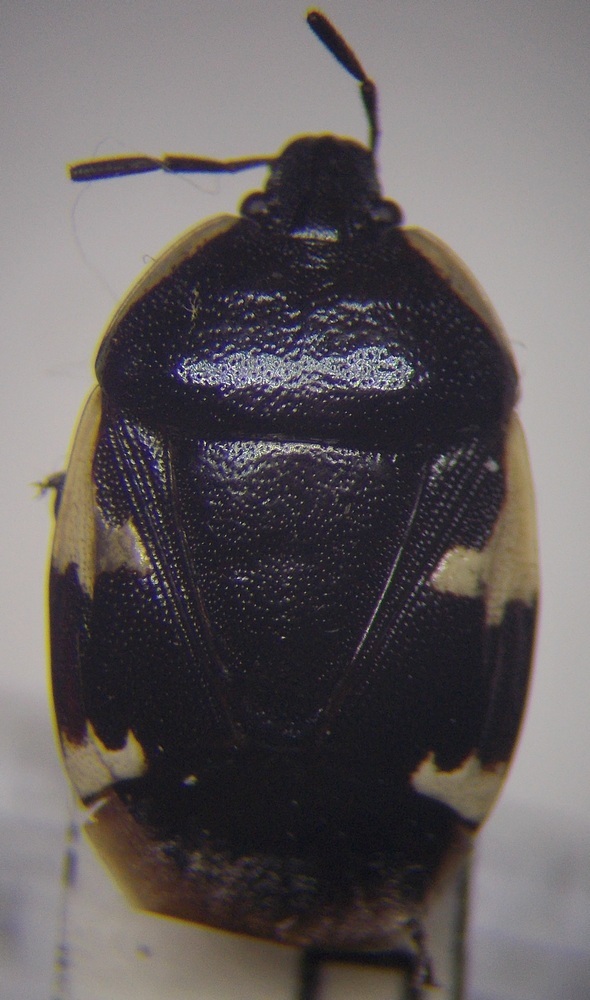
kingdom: Animalia
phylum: Arthropoda
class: Insecta
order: Hemiptera
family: Cydnidae
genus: Tritomegas
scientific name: Tritomegas sexmaculatus
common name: Rambur's pied shieldbug
